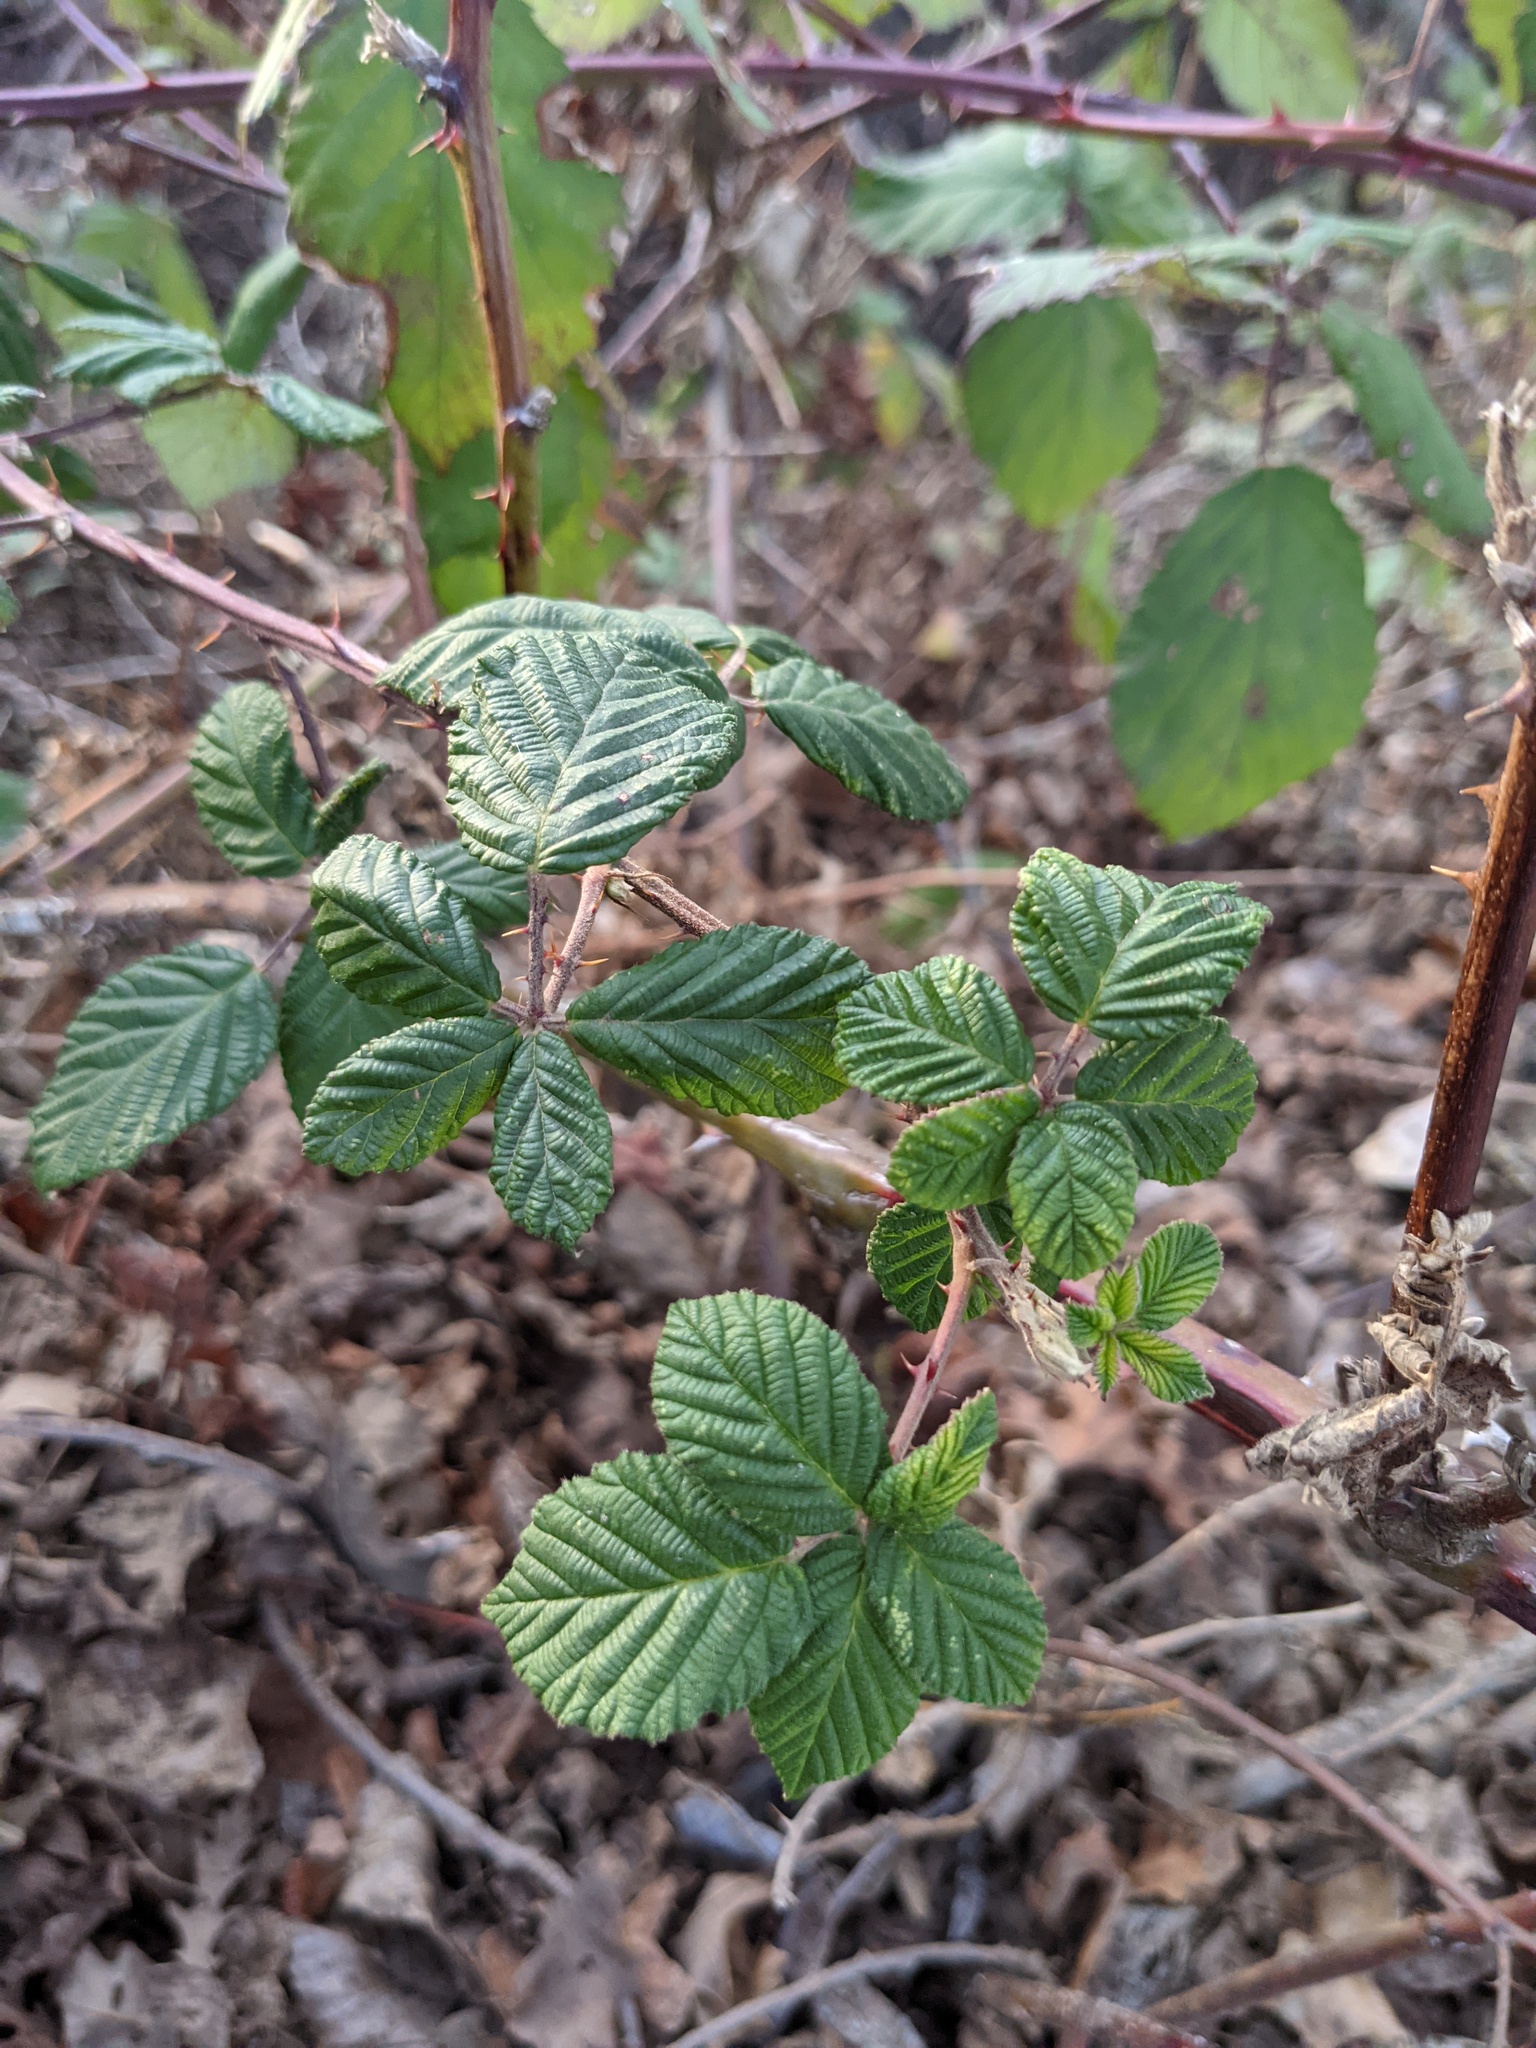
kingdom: Plantae
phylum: Tracheophyta
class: Magnoliopsida
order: Rosales
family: Rosaceae
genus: Rubus
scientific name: Rubus armeniacus
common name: Himalayan blackberry
